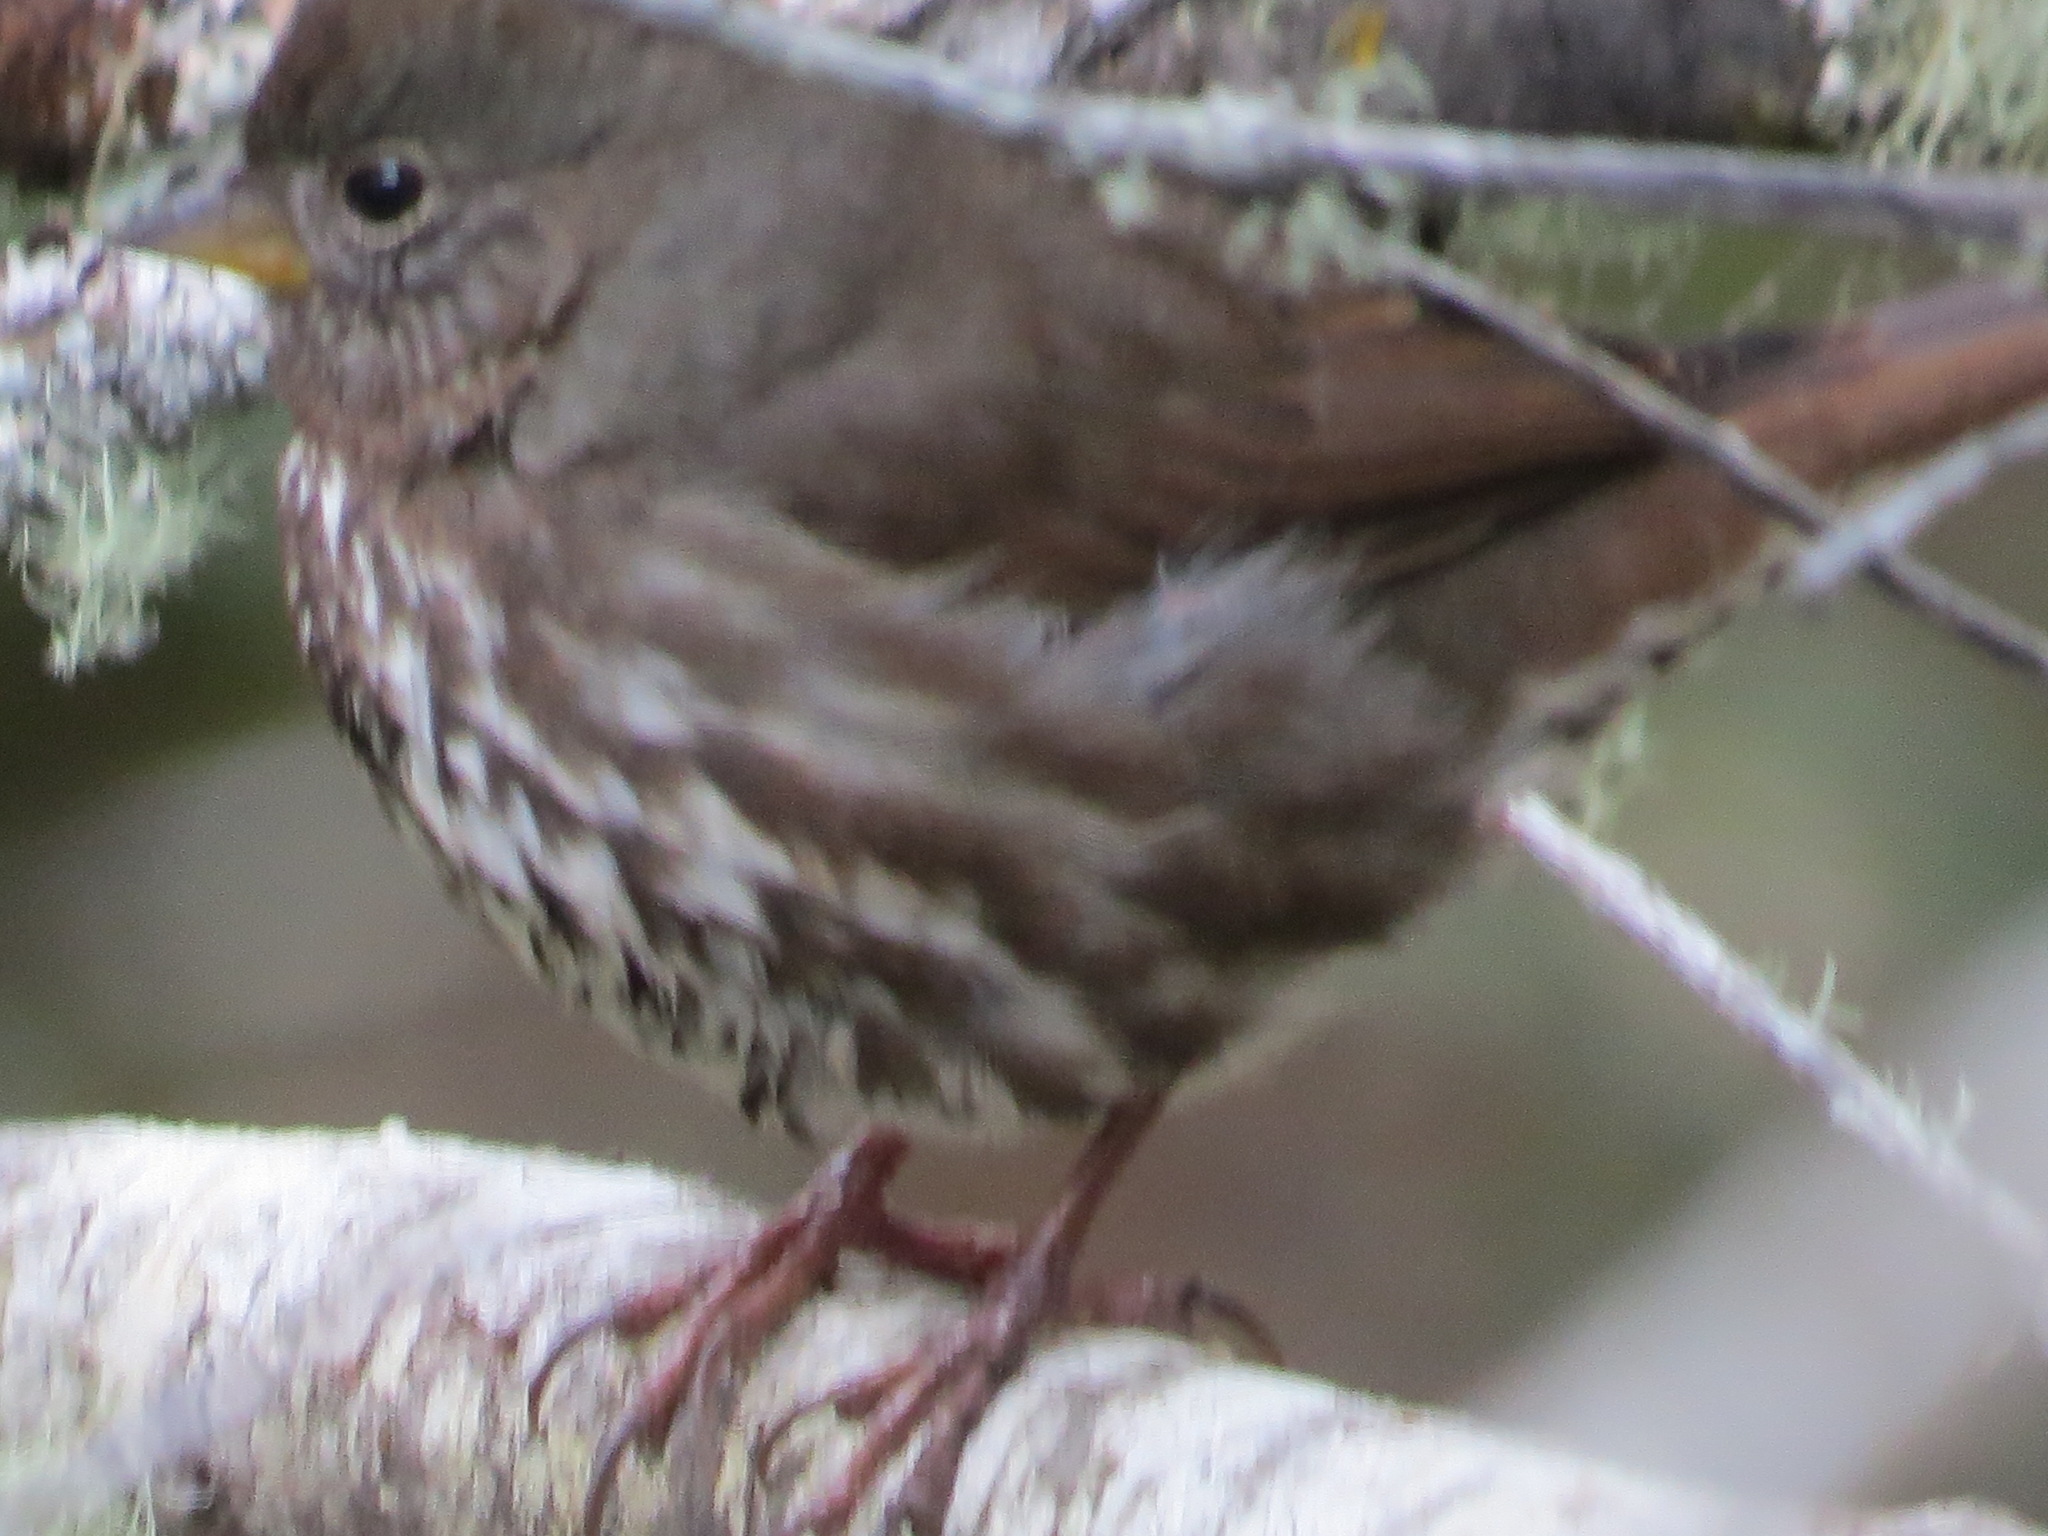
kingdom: Animalia
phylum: Chordata
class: Aves
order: Passeriformes
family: Passerellidae
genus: Passerella
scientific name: Passerella iliaca
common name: Fox sparrow
